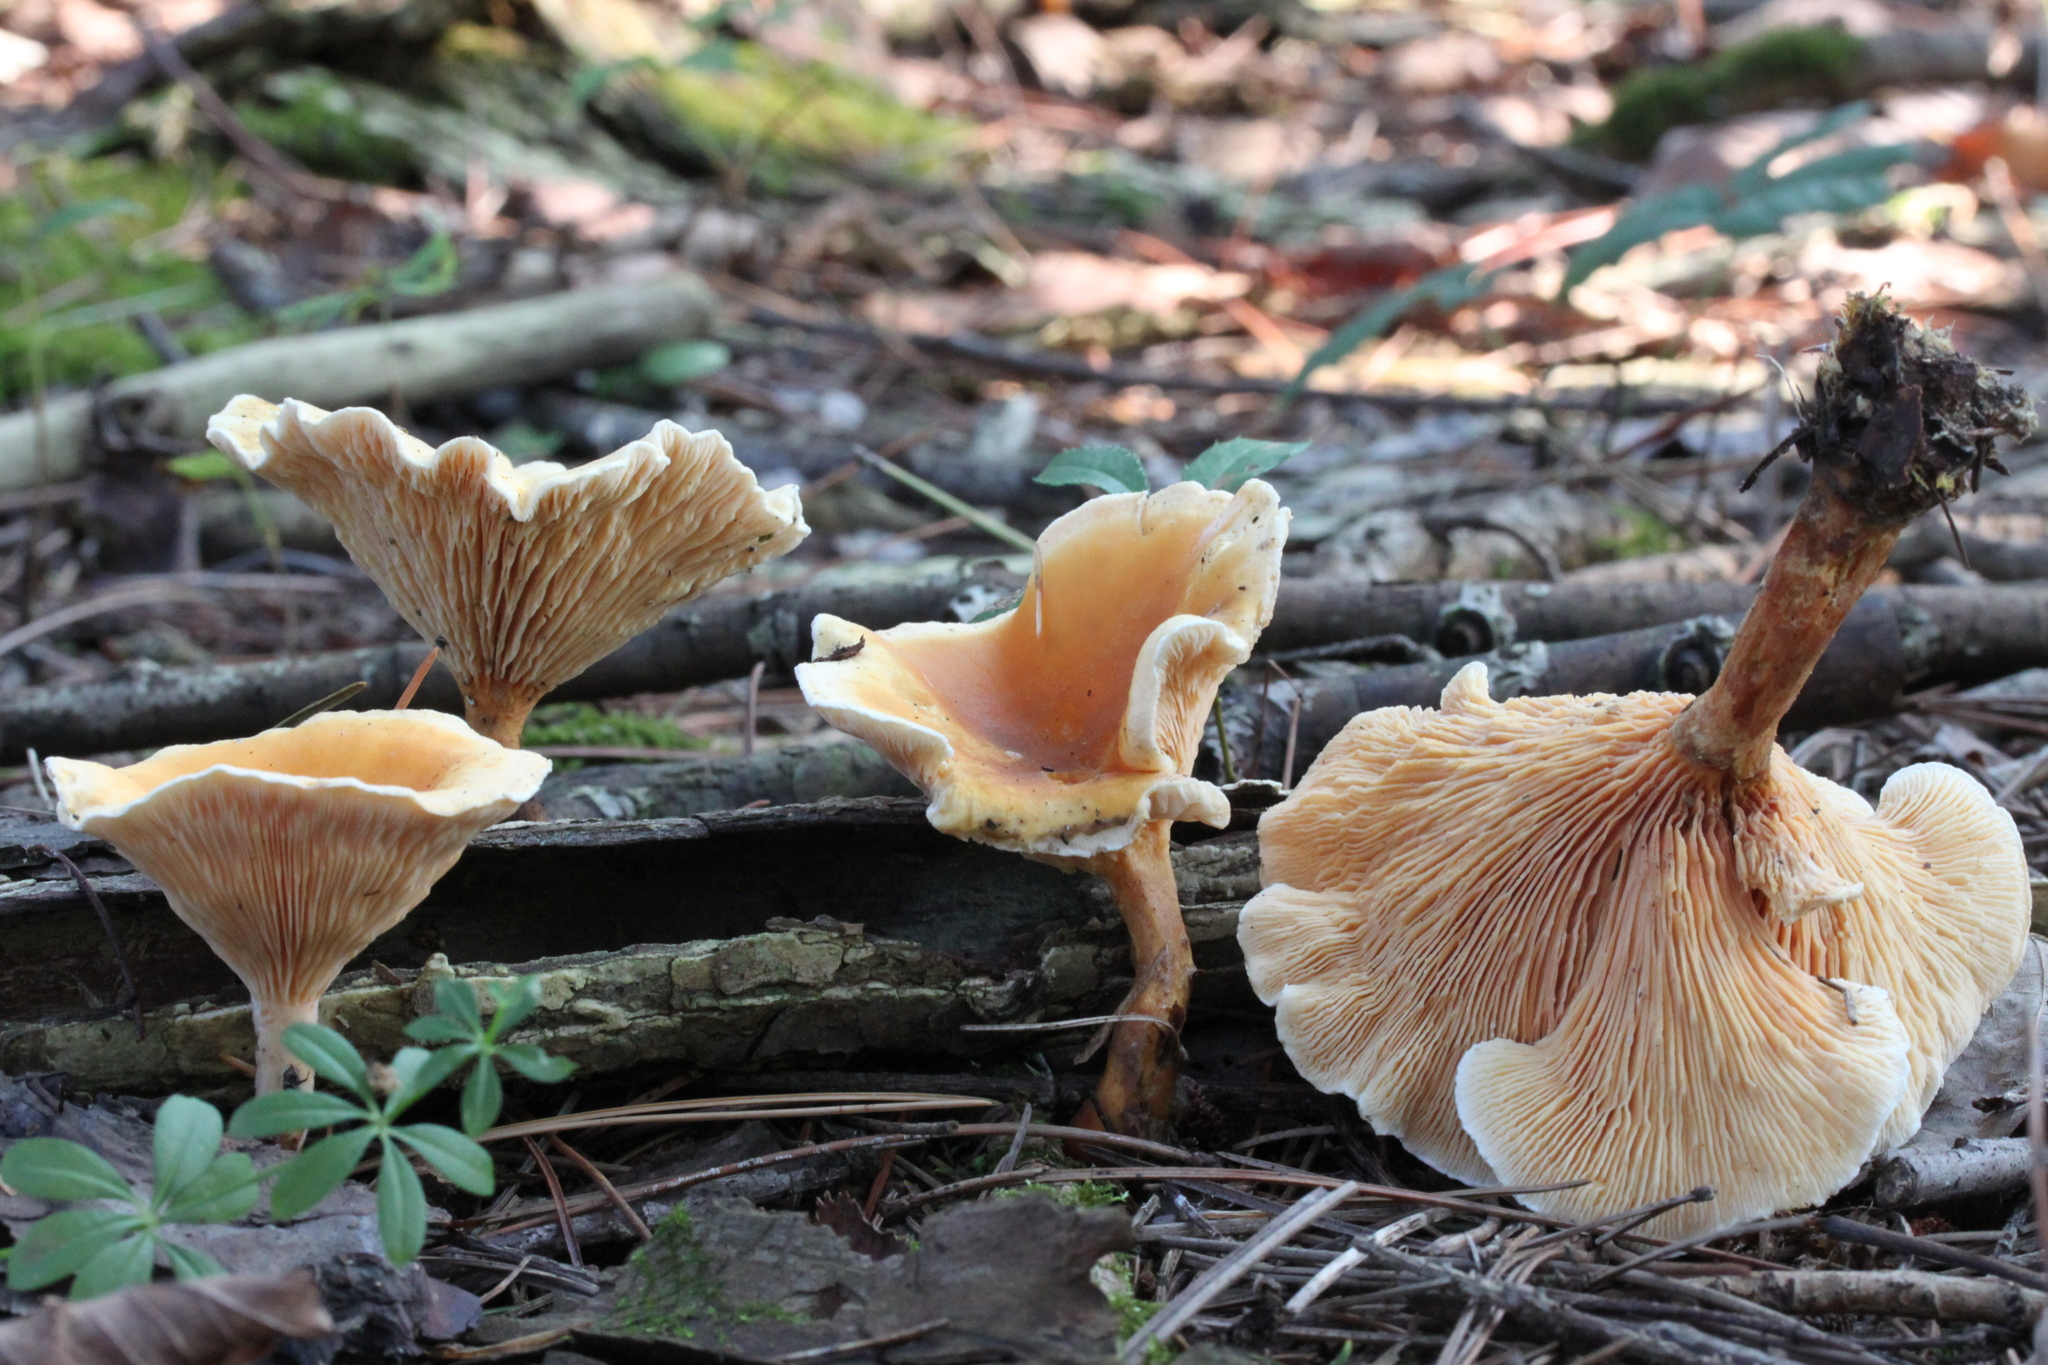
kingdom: Fungi
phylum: Basidiomycota
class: Agaricomycetes
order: Boletales
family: Hygrophoropsidaceae
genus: Hygrophoropsis
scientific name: Hygrophoropsis aurantiaca
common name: False chanterelle
